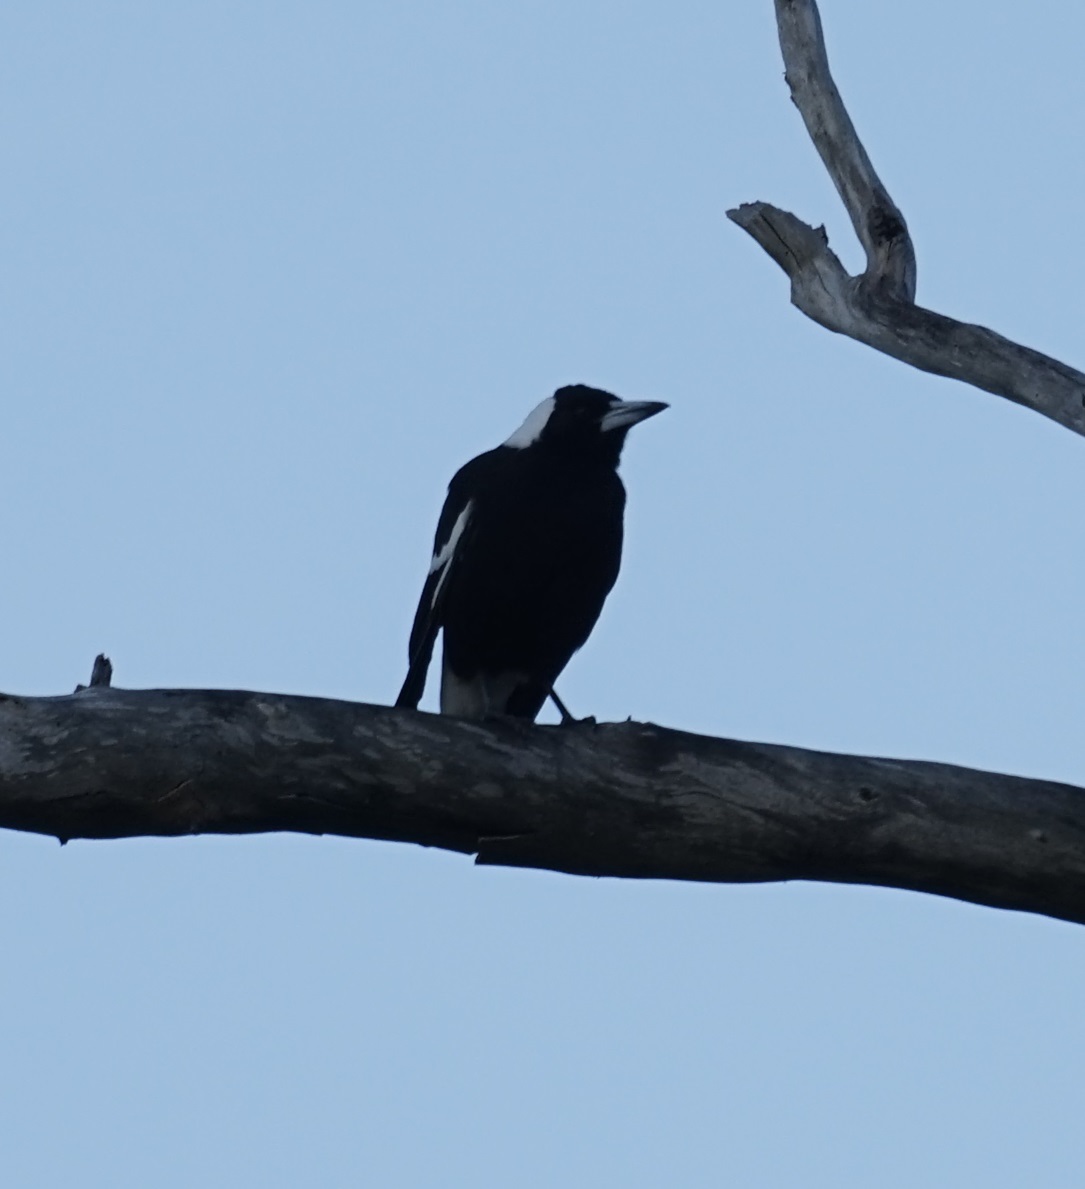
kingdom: Animalia
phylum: Chordata
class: Aves
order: Passeriformes
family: Cracticidae
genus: Gymnorhina
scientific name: Gymnorhina tibicen
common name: Australian magpie
